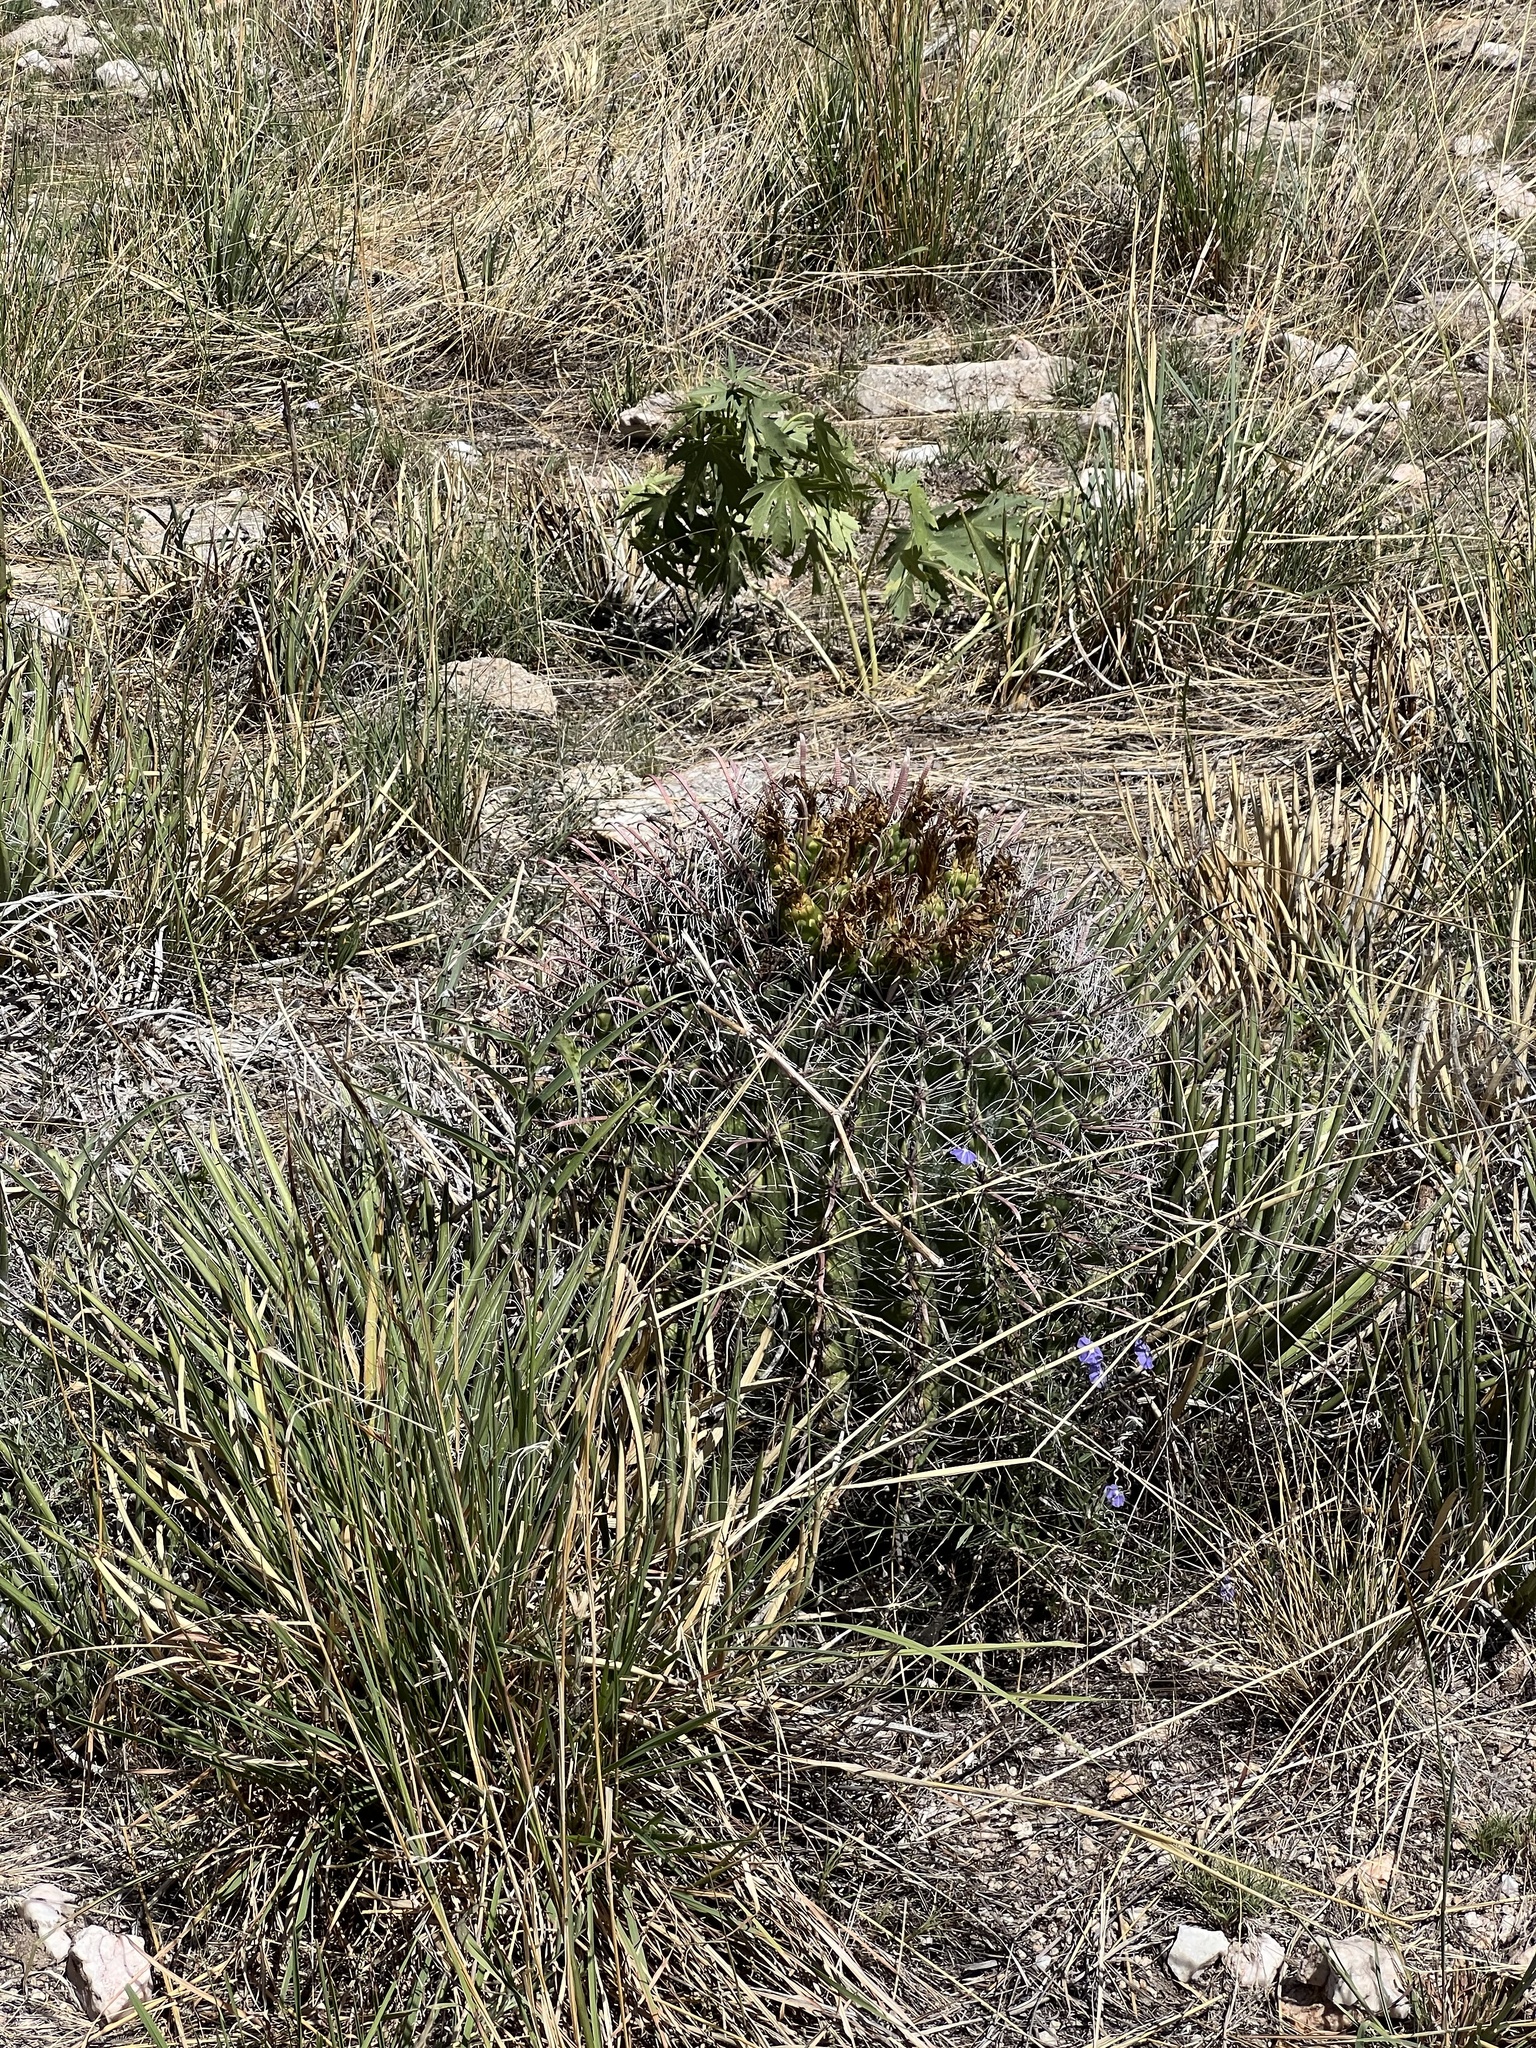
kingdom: Plantae
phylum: Tracheophyta
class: Magnoliopsida
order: Caryophyllales
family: Cactaceae
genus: Ferocactus
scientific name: Ferocactus wislizeni
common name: Candy barrel cactus
